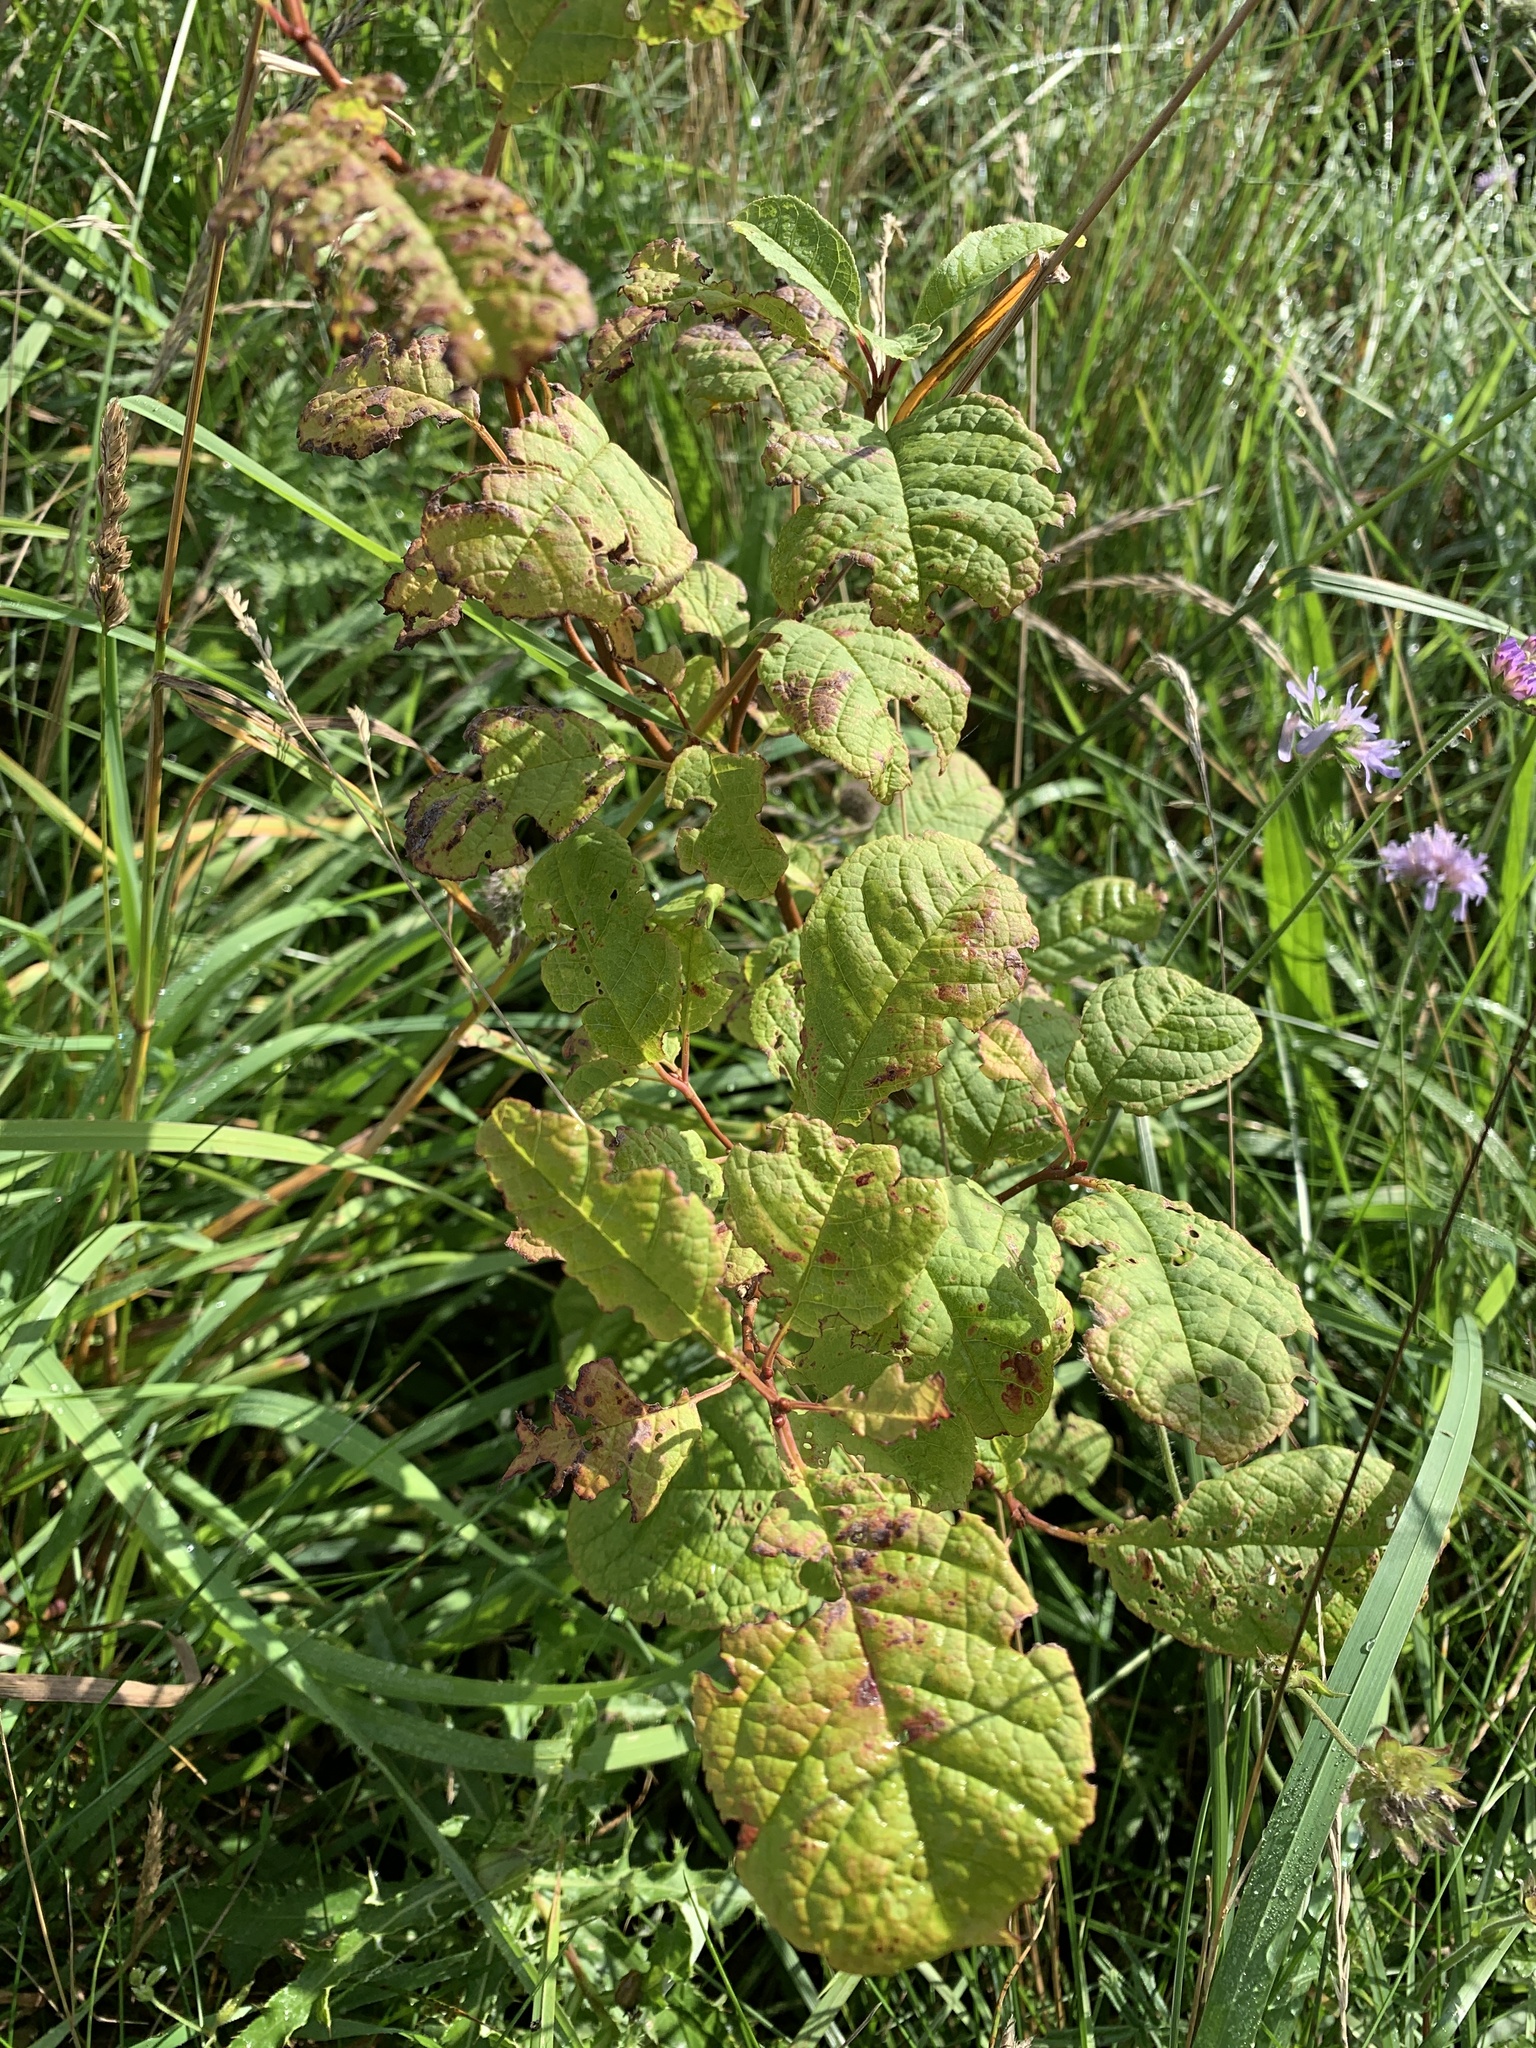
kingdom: Plantae
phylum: Tracheophyta
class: Magnoliopsida
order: Rosales
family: Rosaceae
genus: Prunus
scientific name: Prunus padus
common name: Bird cherry
